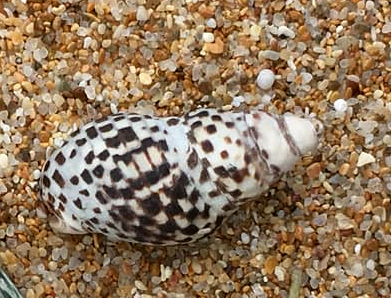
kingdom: Animalia
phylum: Mollusca
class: Gastropoda
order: Neogastropoda
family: Cominellidae
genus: Cominella
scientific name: Cominella lineolata
